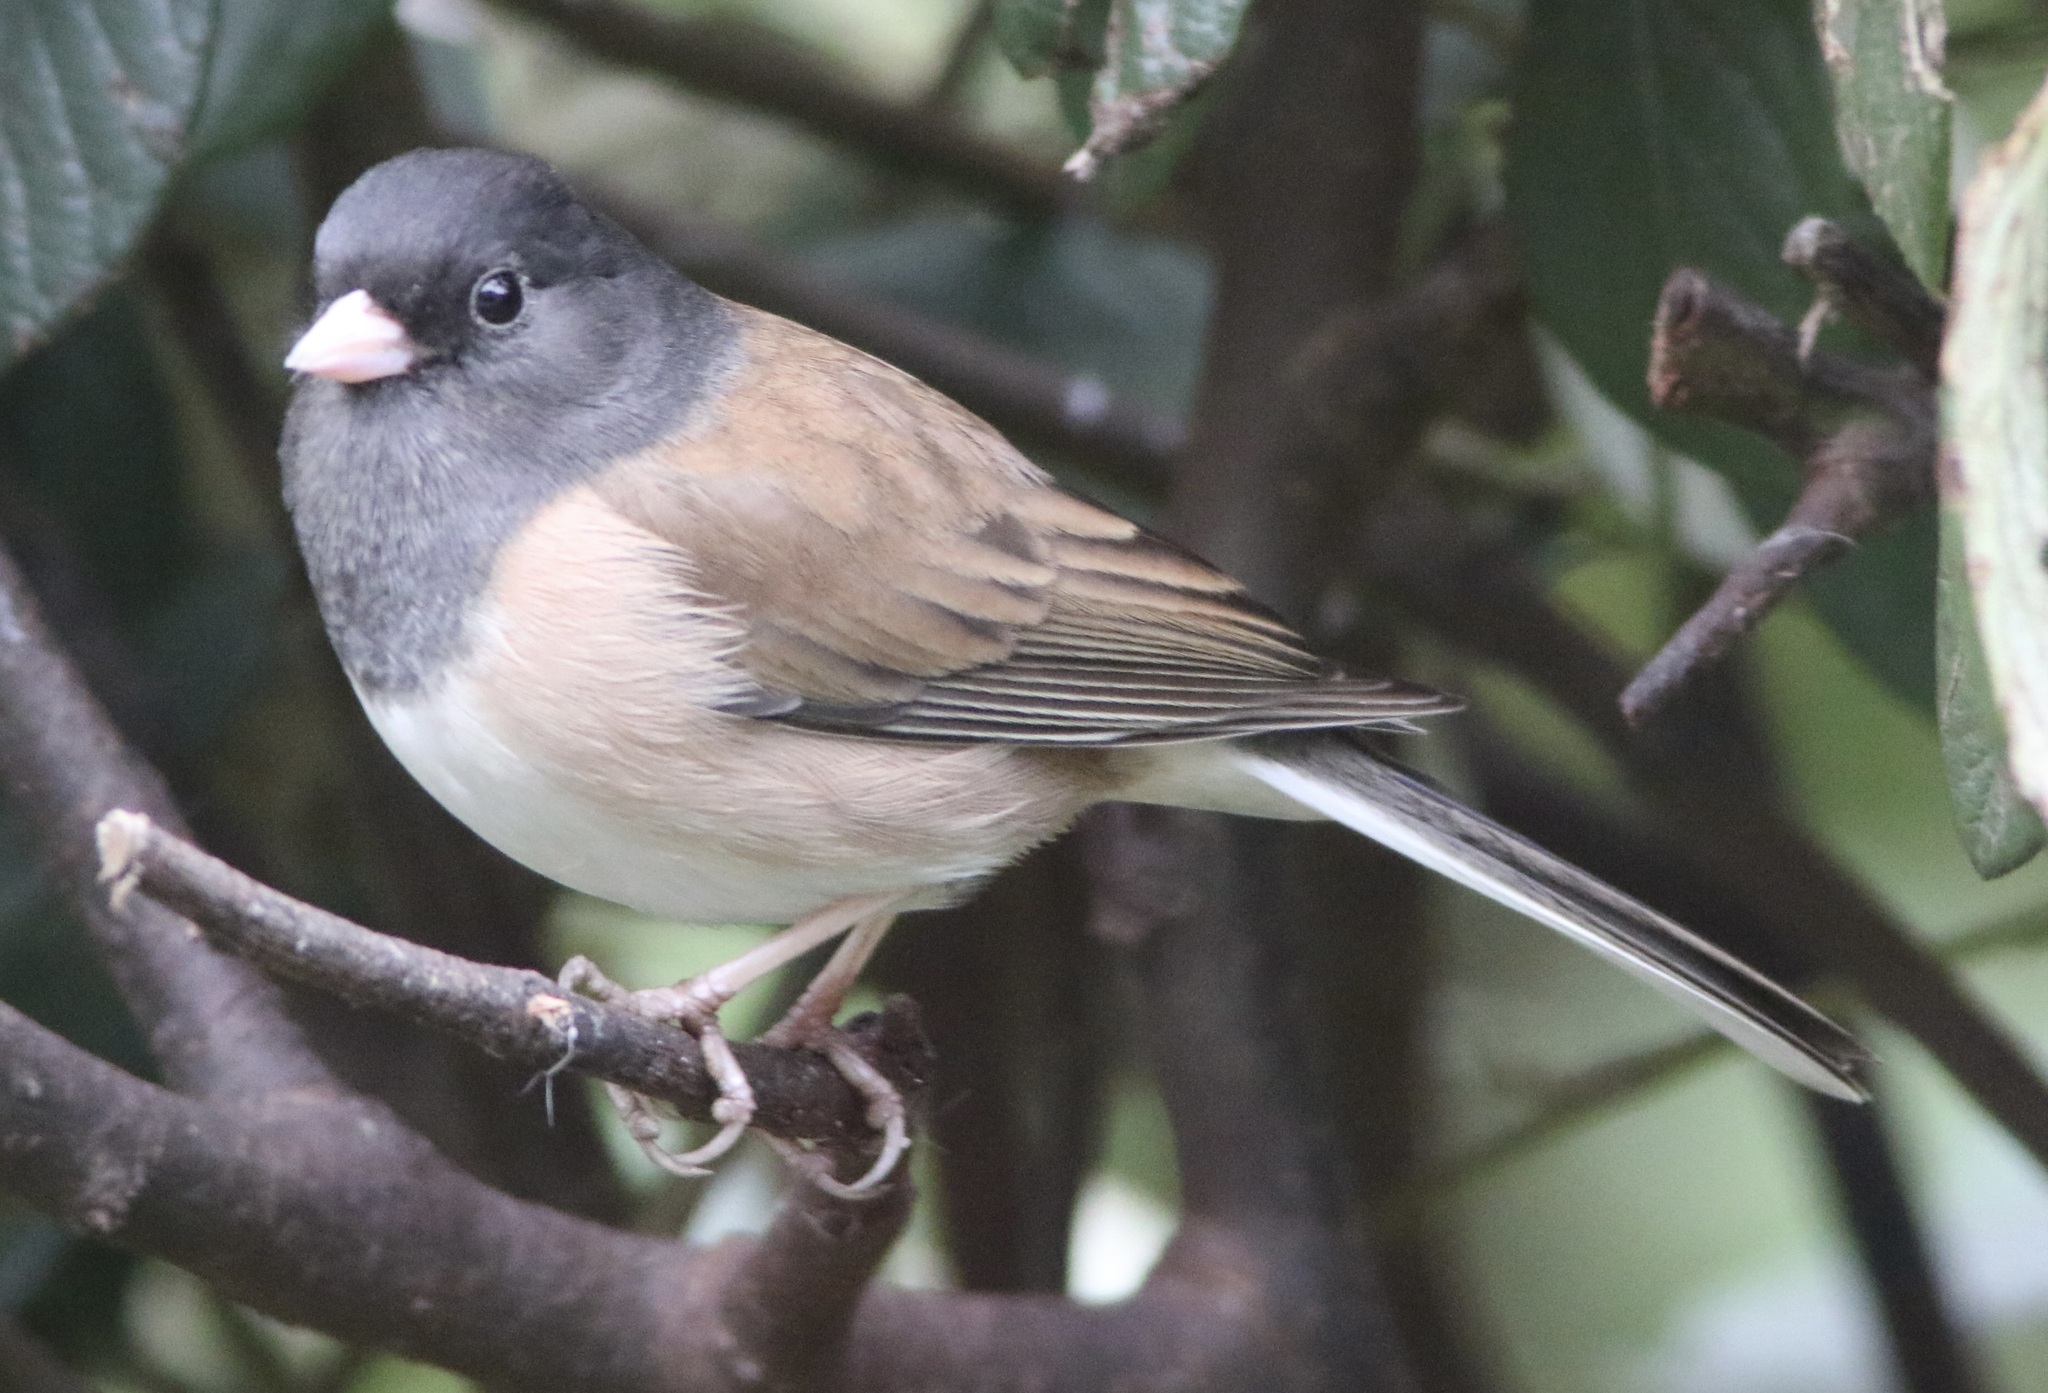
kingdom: Animalia
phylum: Chordata
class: Aves
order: Passeriformes
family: Passerellidae
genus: Junco
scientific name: Junco hyemalis
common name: Dark-eyed junco
